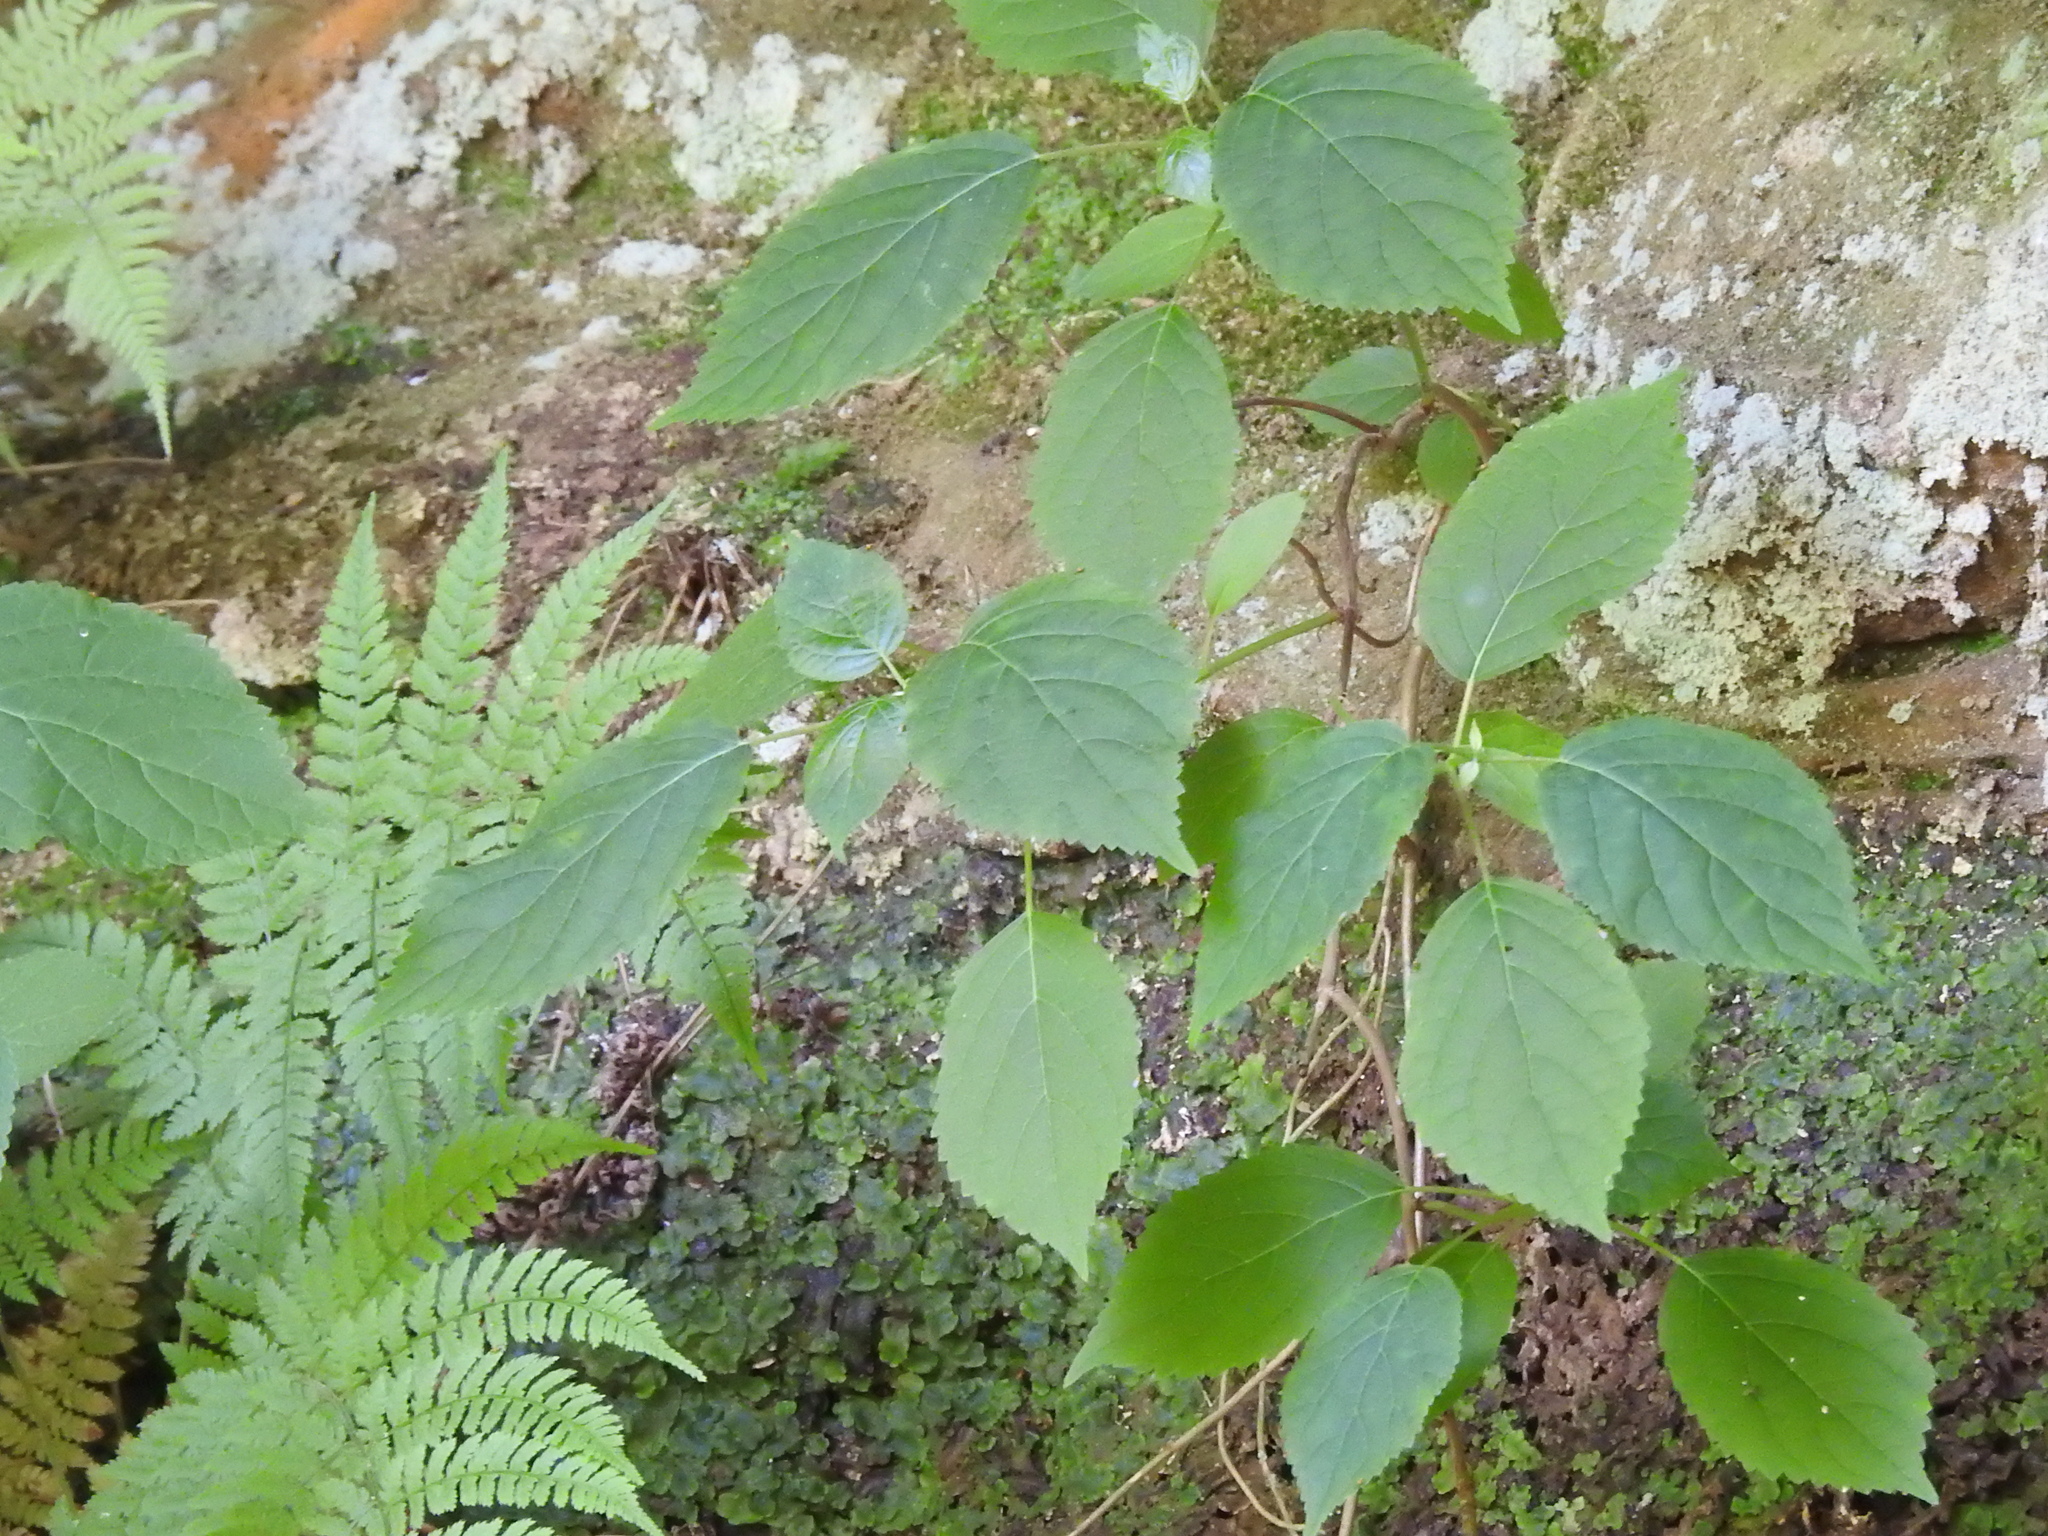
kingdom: Plantae
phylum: Tracheophyta
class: Magnoliopsida
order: Cornales
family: Hydrangeaceae
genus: Hydrangea
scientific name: Hydrangea arborescens
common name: Sevenbark
